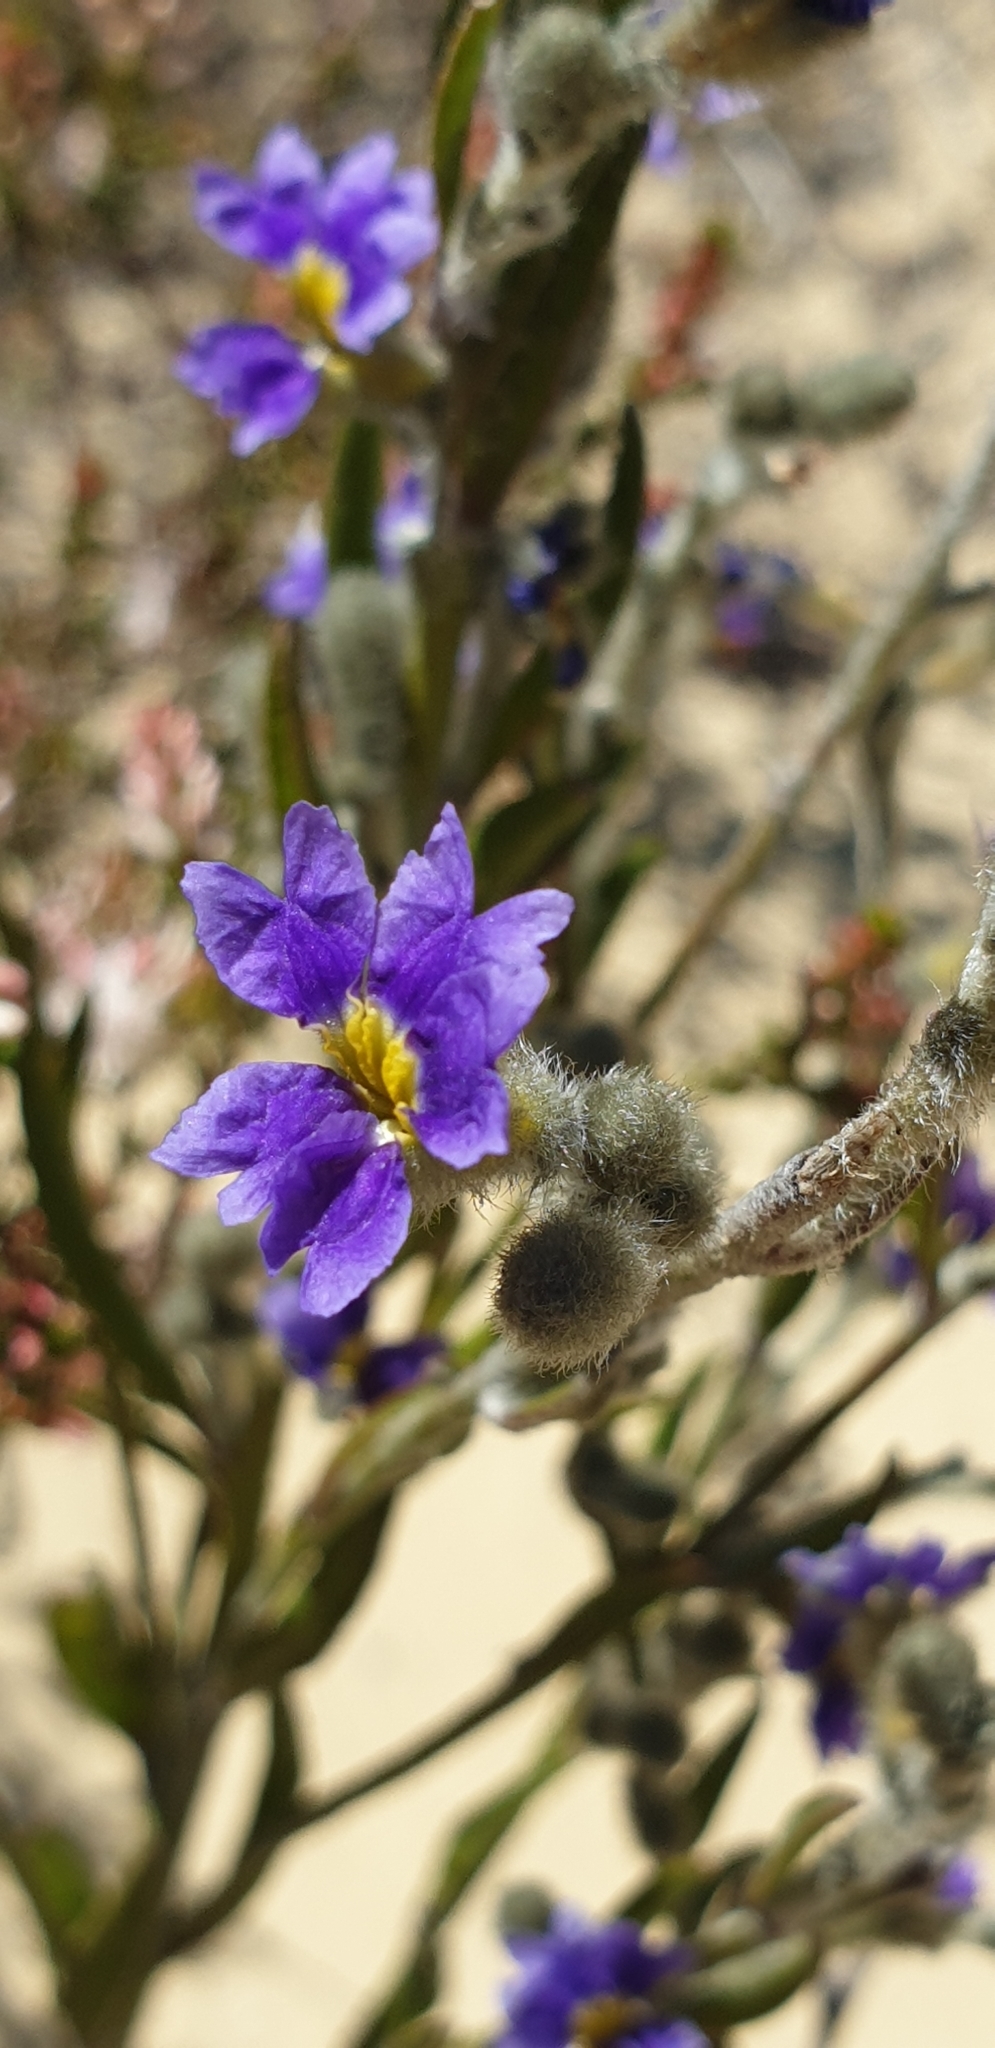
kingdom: Plantae
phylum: Tracheophyta
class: Magnoliopsida
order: Asterales
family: Goodeniaceae
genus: Dampiera
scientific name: Dampiera lanceolata
